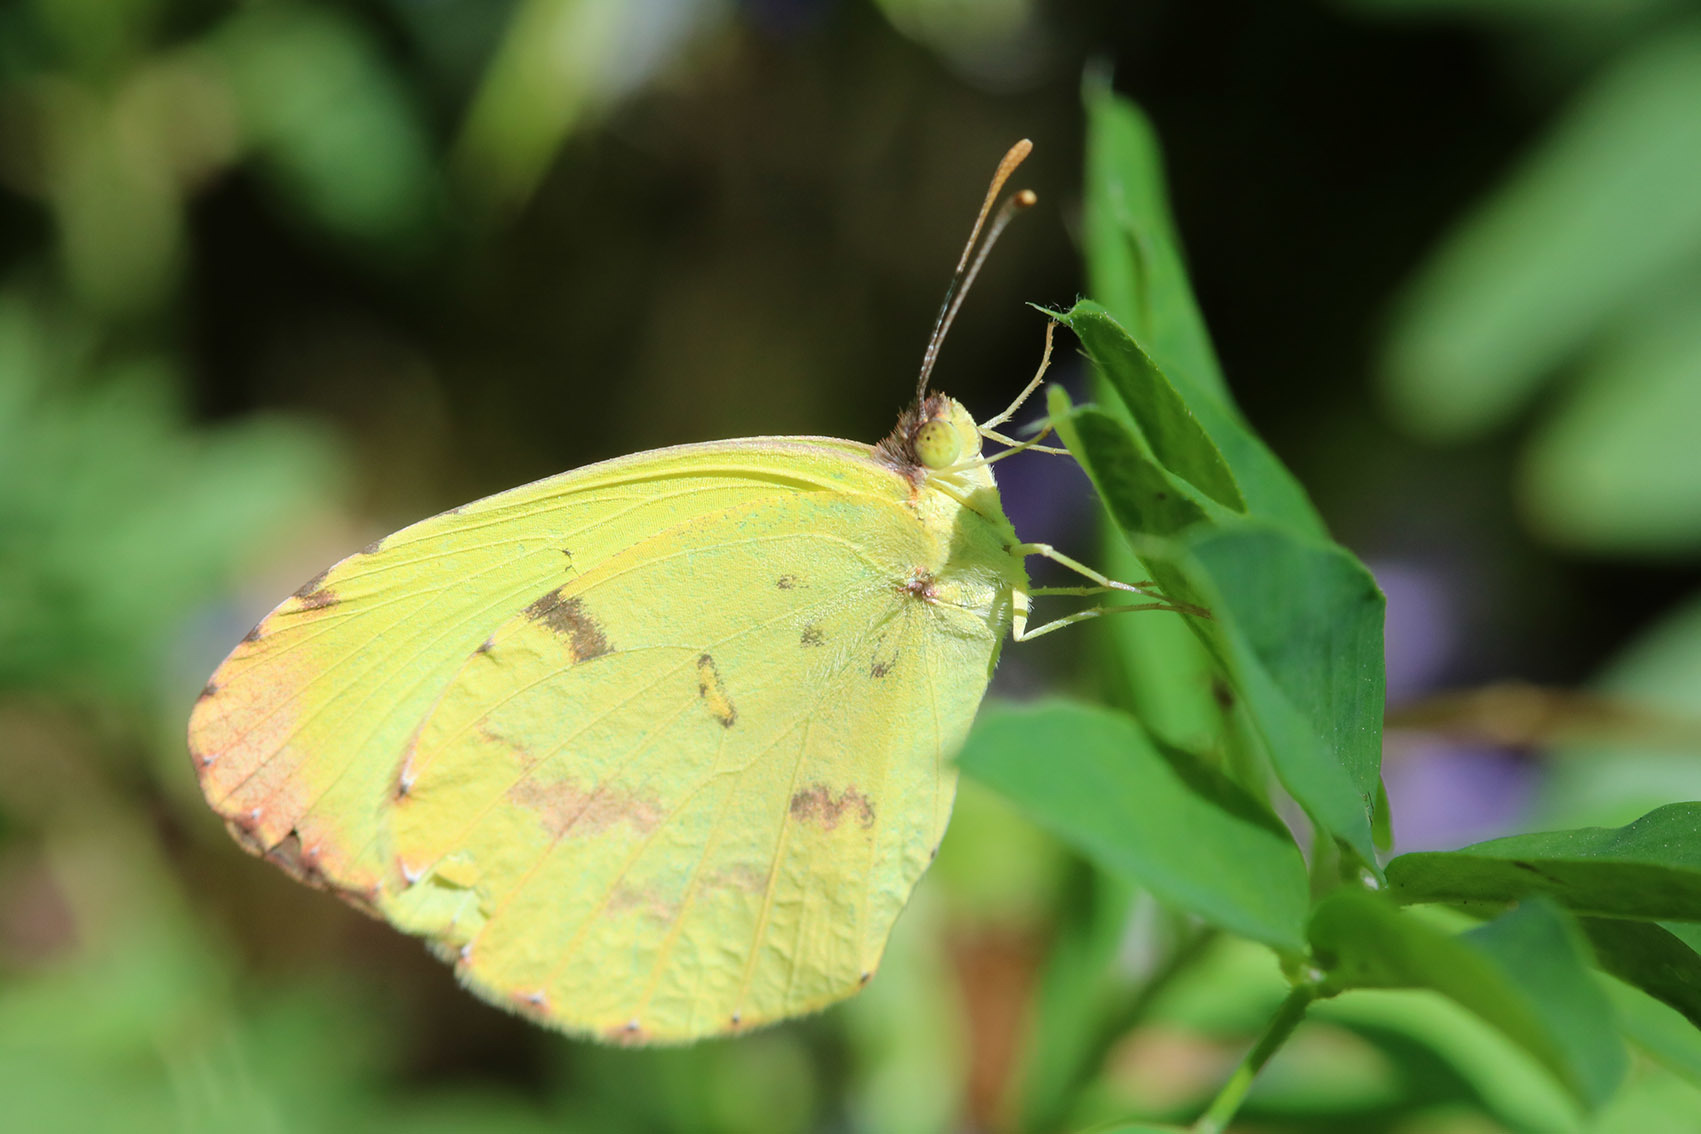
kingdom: Animalia
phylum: Arthropoda
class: Insecta
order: Lepidoptera
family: Pieridae
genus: Teriocolias
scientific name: Teriocolias
